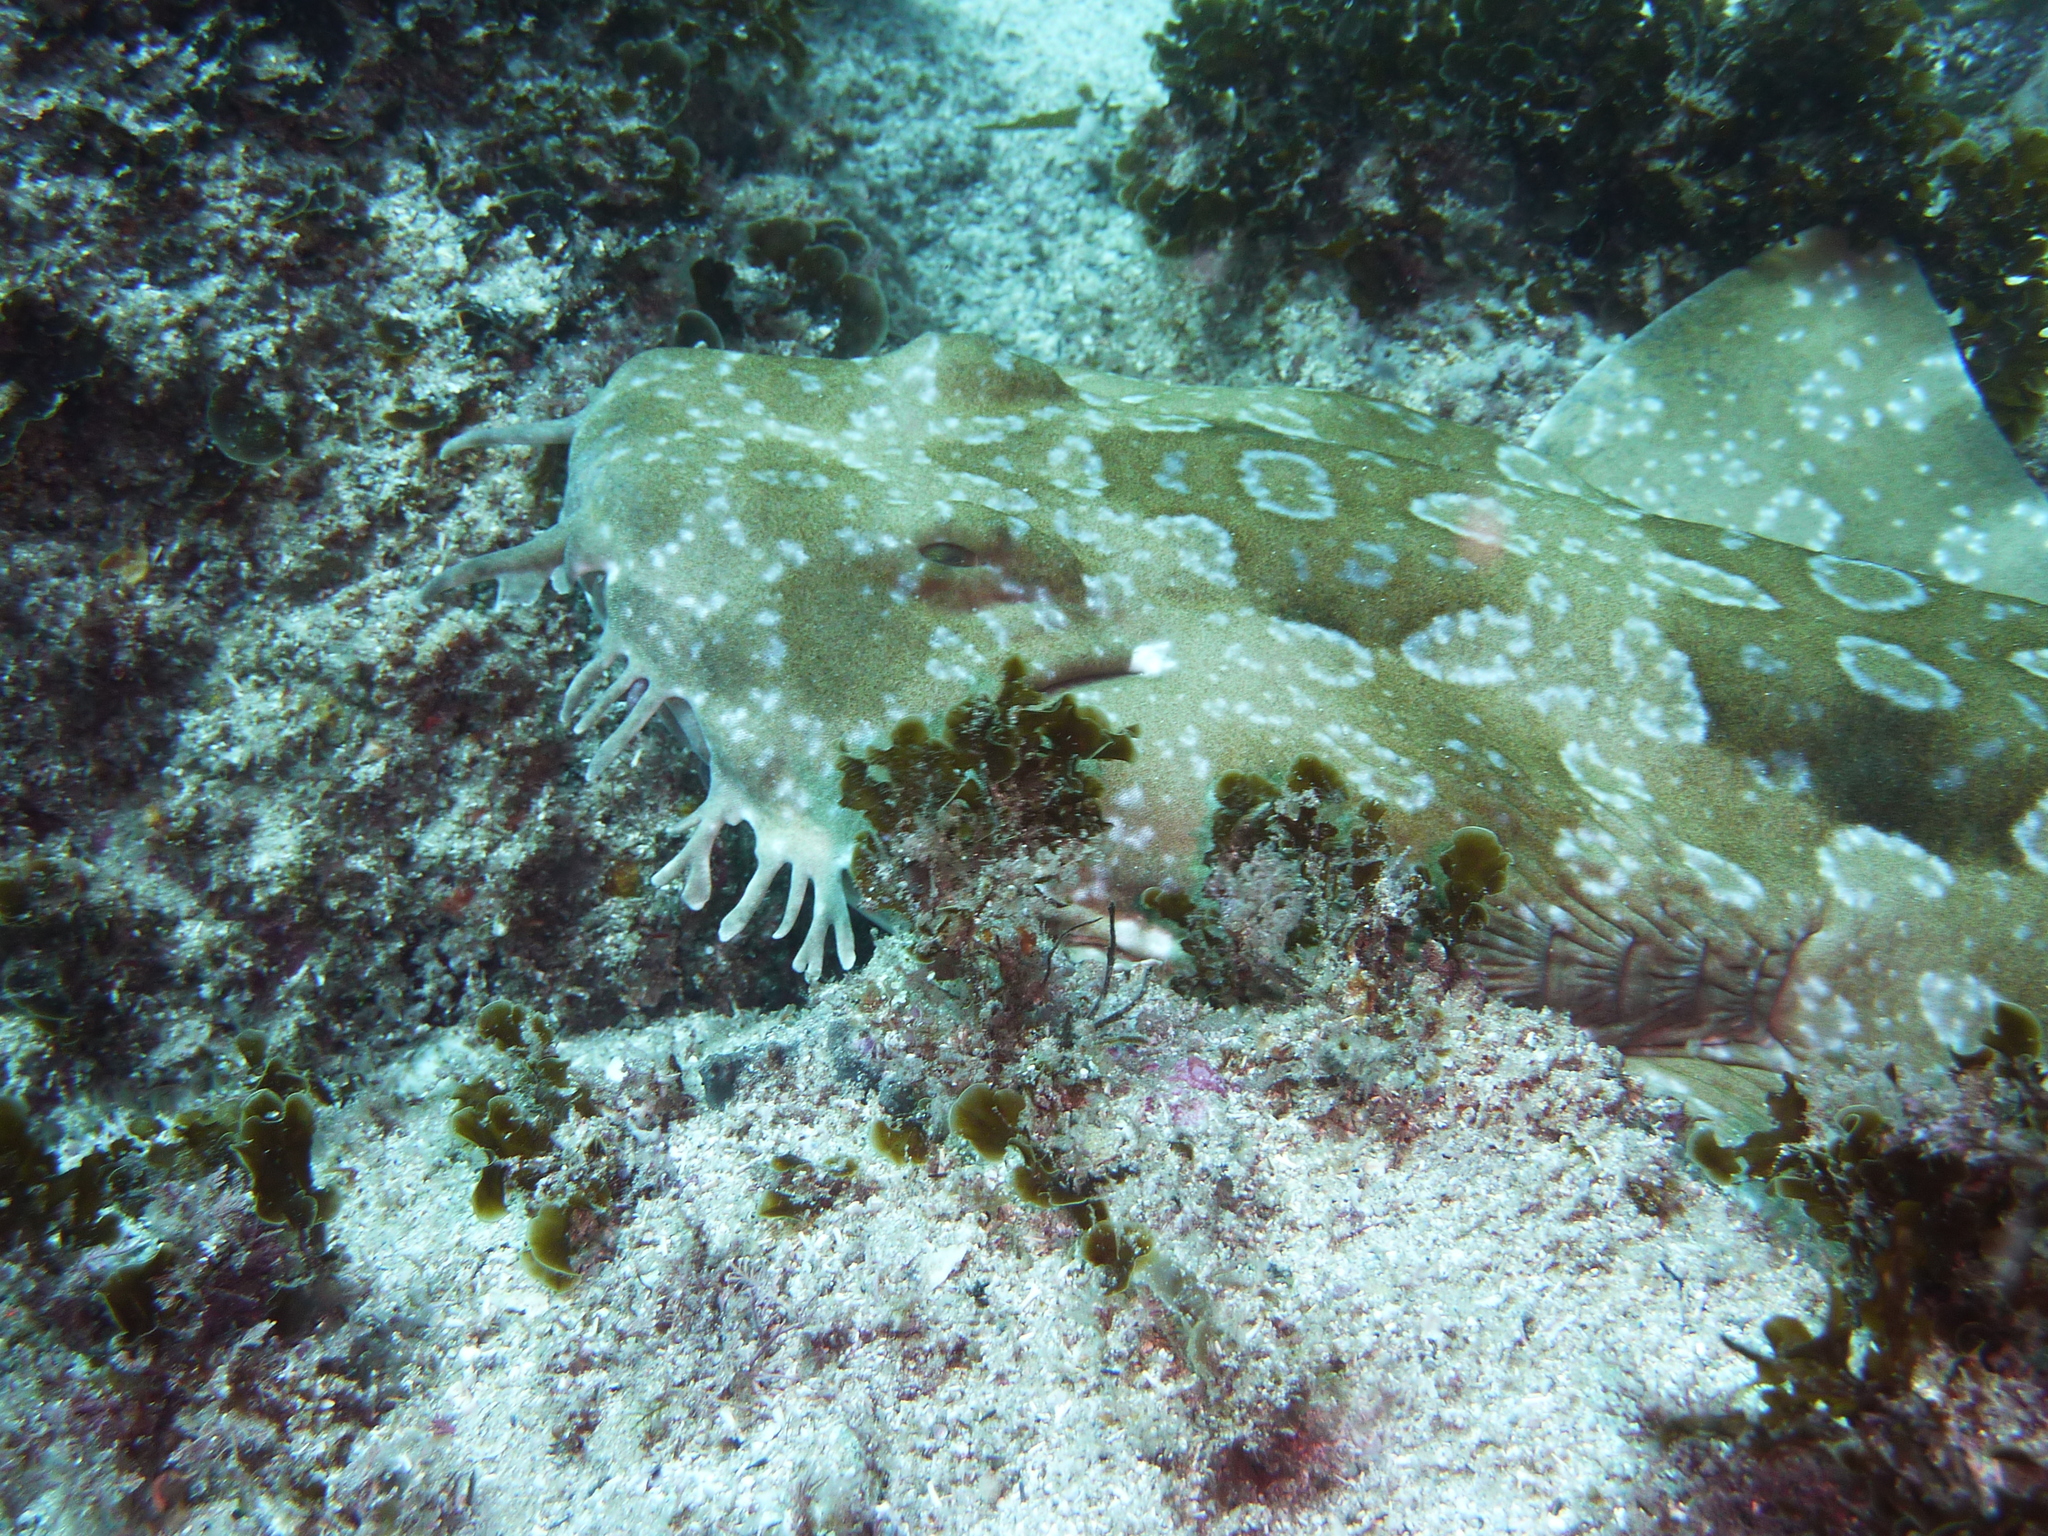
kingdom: Animalia
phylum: Chordata
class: Elasmobranchii
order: Orectolobiformes
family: Orectolobidae
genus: Orectolobus
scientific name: Orectolobus maculatus
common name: Spotted wobbegong
